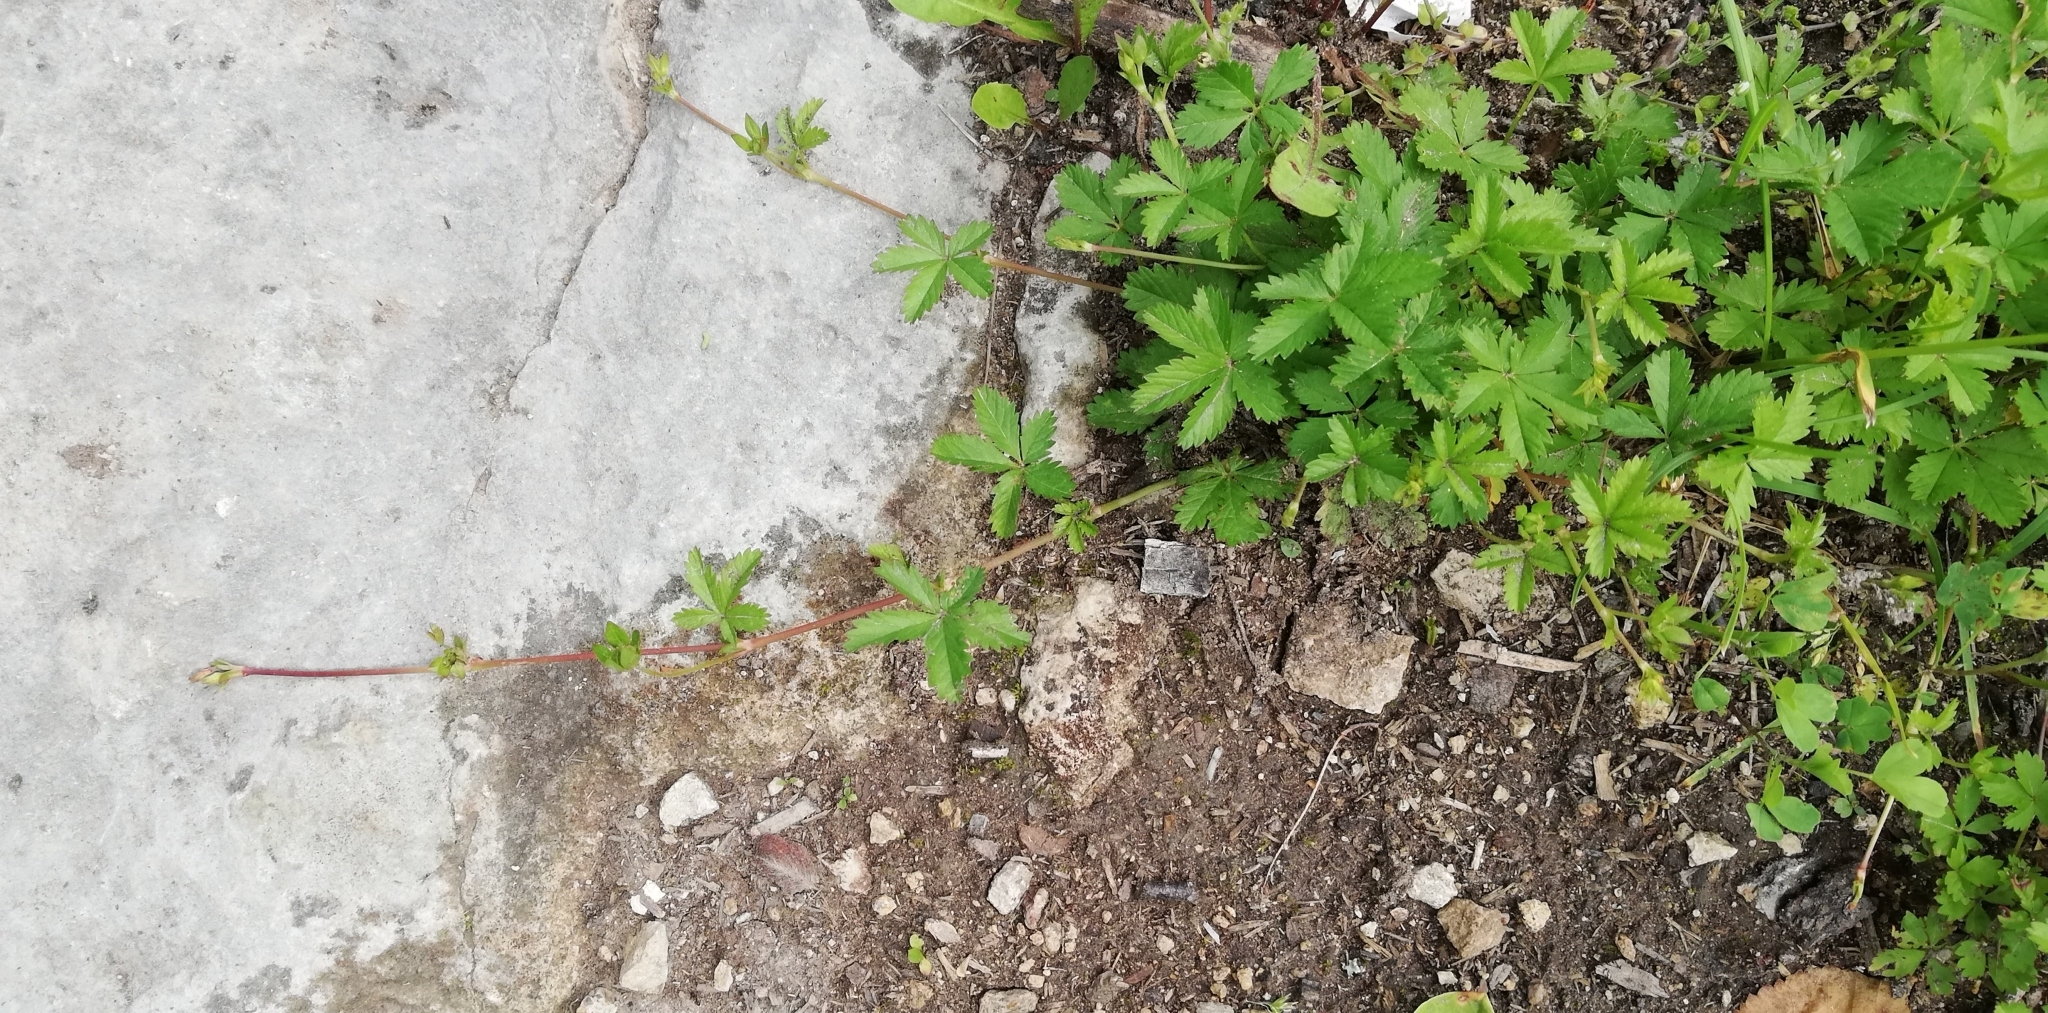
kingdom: Plantae
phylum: Tracheophyta
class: Magnoliopsida
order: Rosales
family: Rosaceae
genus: Potentilla
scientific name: Potentilla reptans
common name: Creeping cinquefoil
